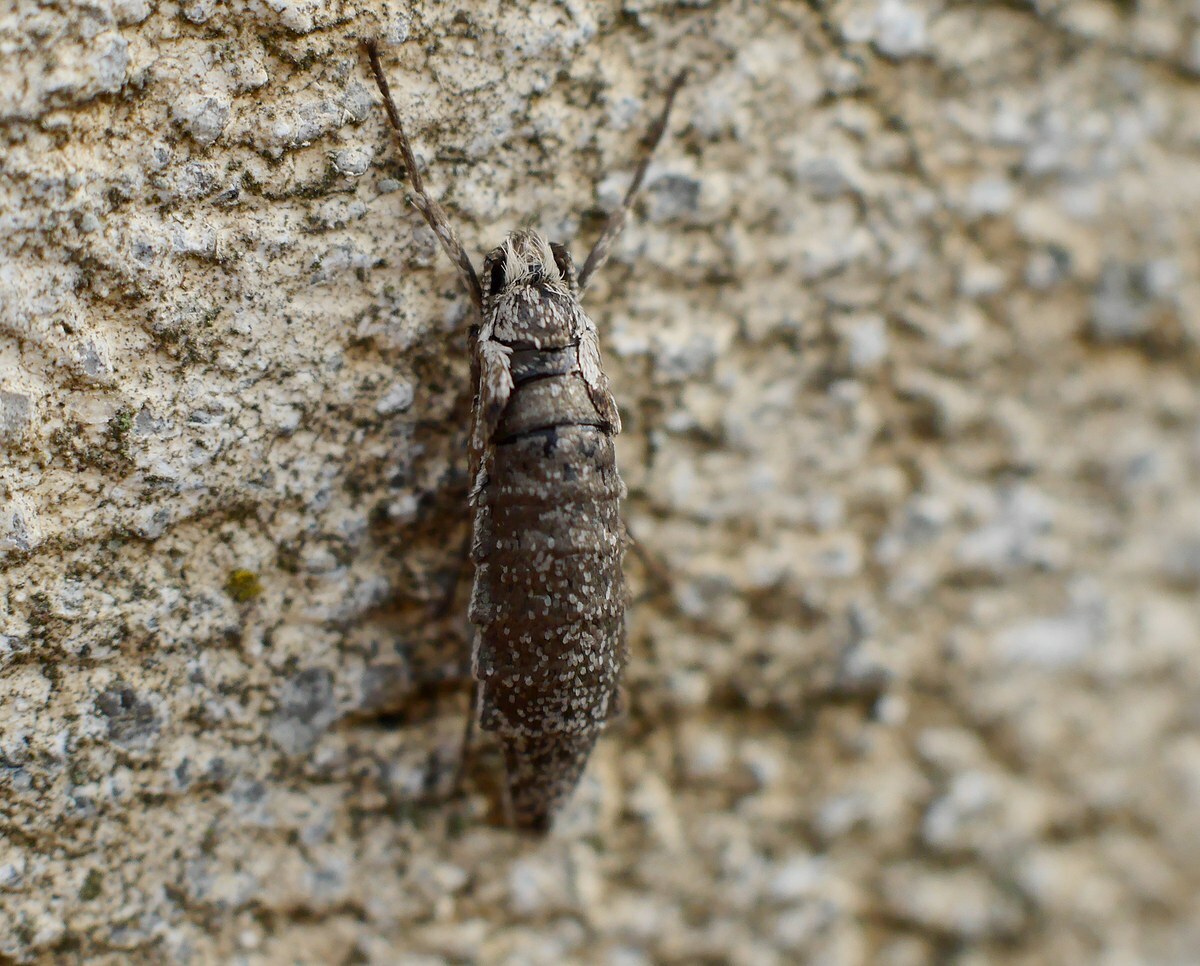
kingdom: Animalia
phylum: Arthropoda
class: Insecta
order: Lepidoptera
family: Eriocottidae
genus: Deuterotinea
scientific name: Deuterotinea casanella
